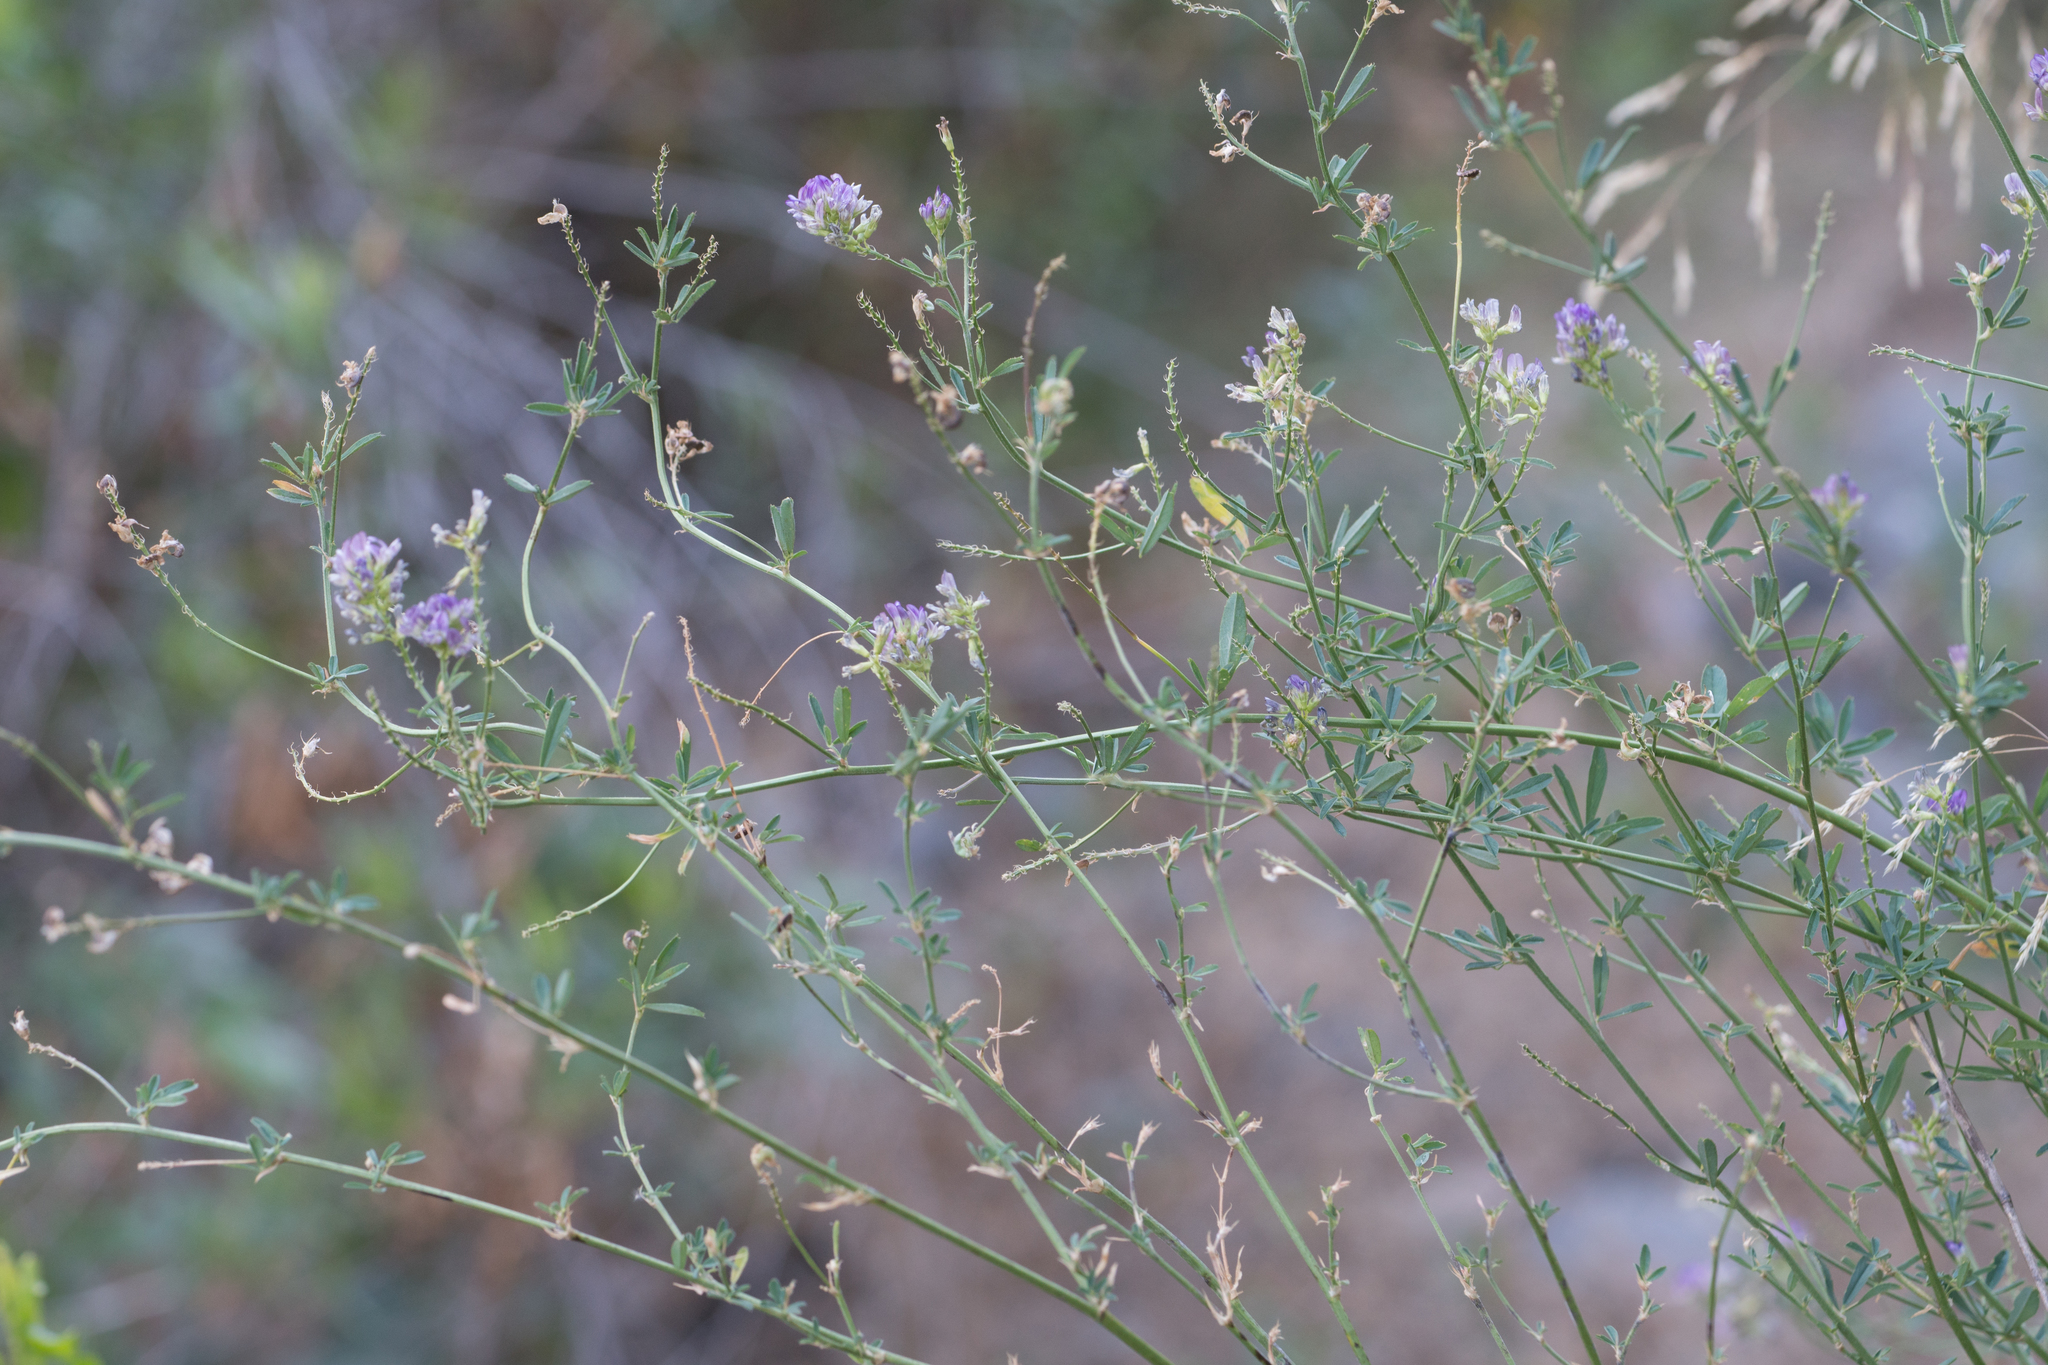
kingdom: Plantae
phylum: Tracheophyta
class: Magnoliopsida
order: Fabales
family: Fabaceae
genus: Medicago
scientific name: Medicago sativa
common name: Alfalfa
